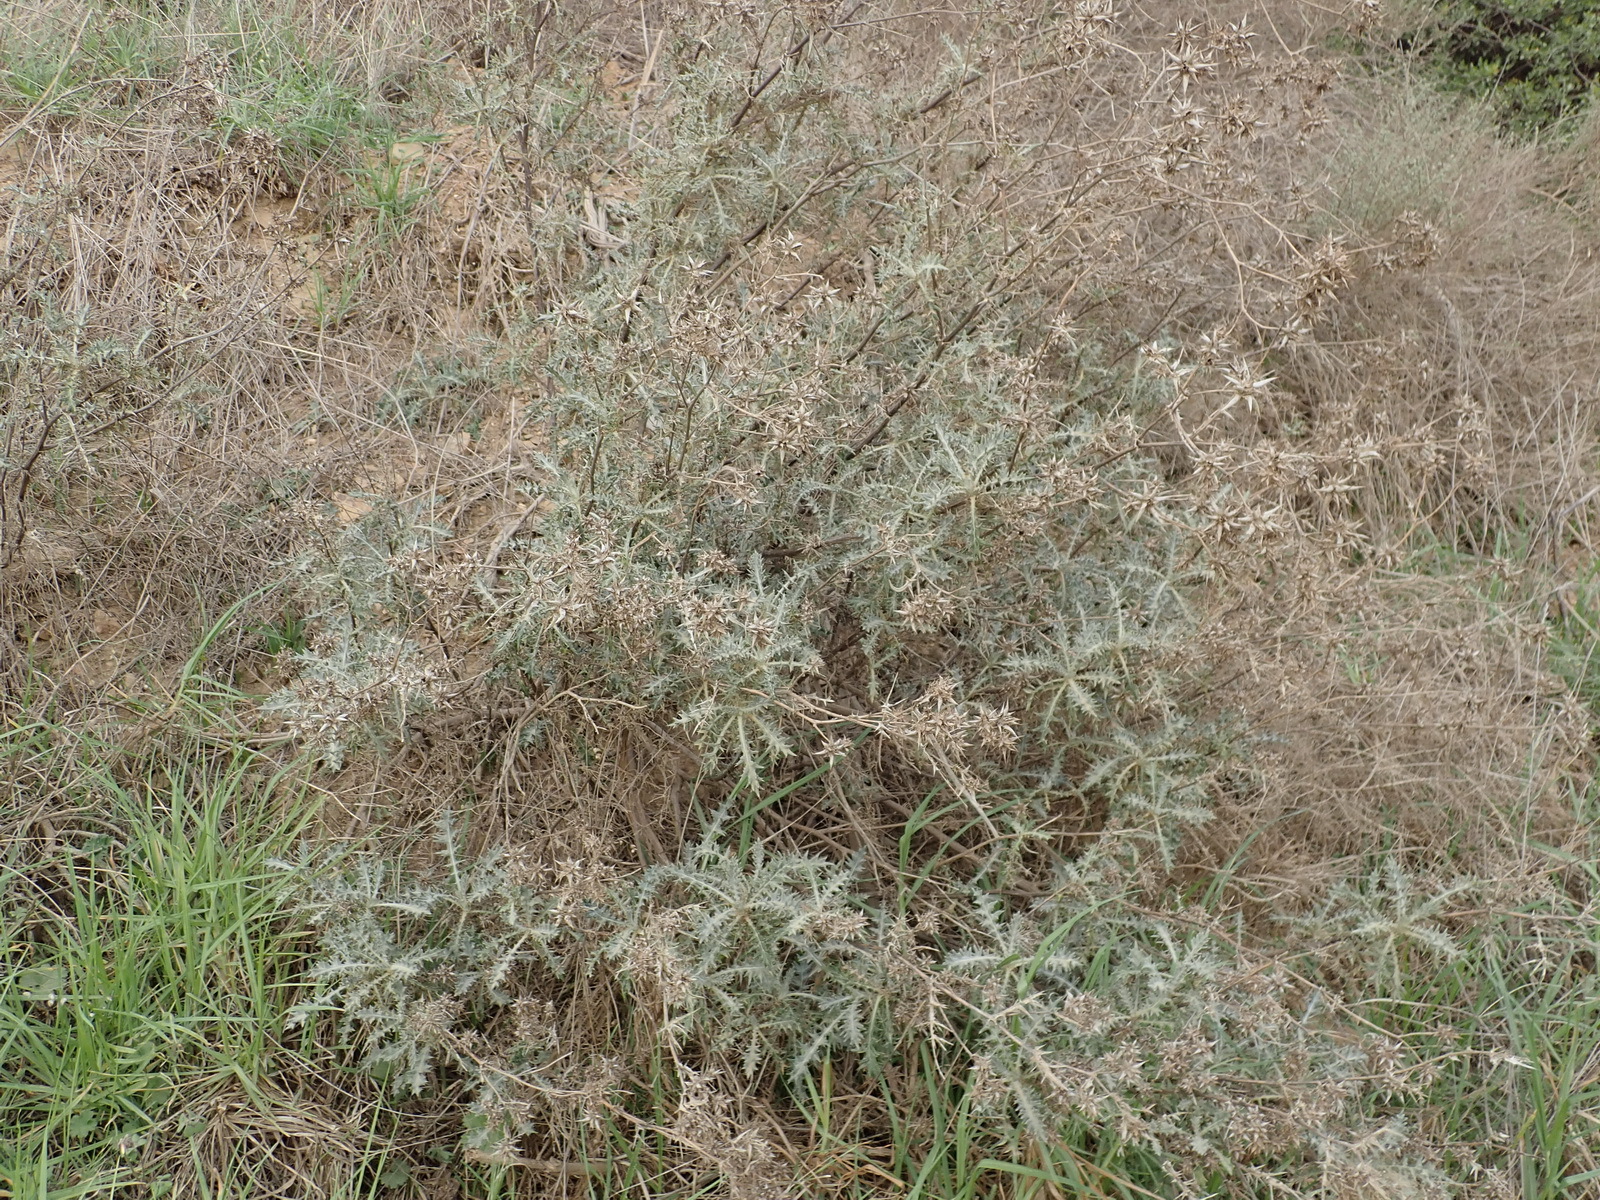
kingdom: Plantae
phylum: Tracheophyta
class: Magnoliopsida
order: Asterales
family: Asteraceae
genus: Berkheya
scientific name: Berkheya rigida
